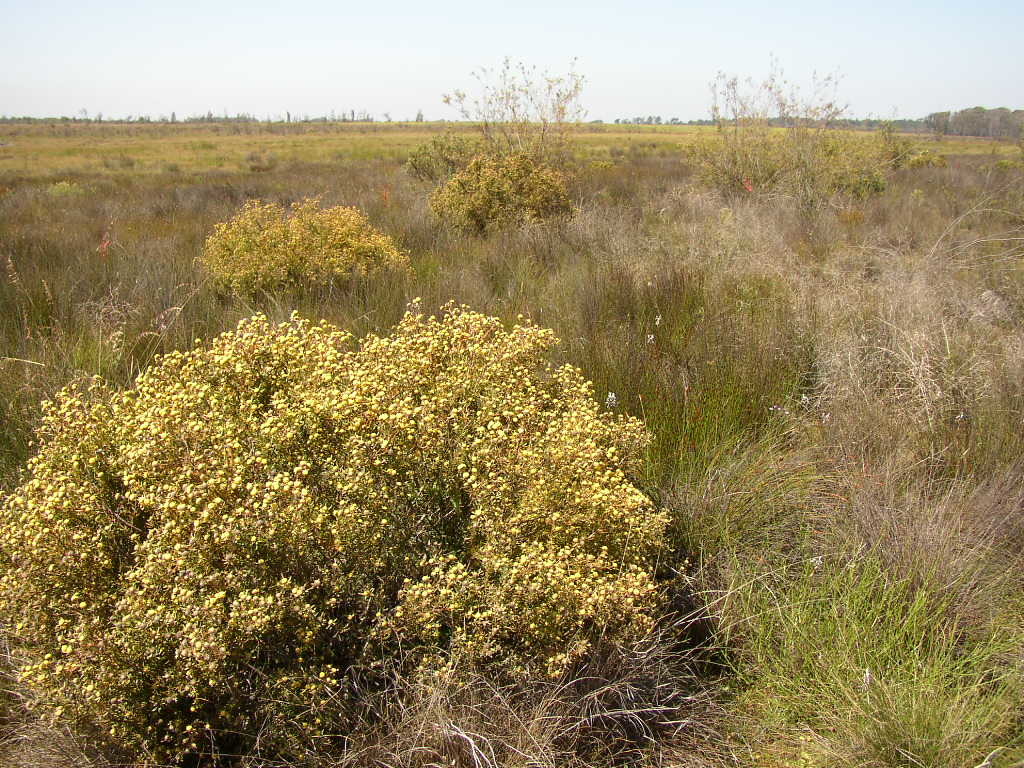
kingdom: Plantae
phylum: Tracheophyta
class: Magnoliopsida
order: Proteales
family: Proteaceae
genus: Leucadendron
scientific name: Leucadendron cinereum
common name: Scraggly conebush
